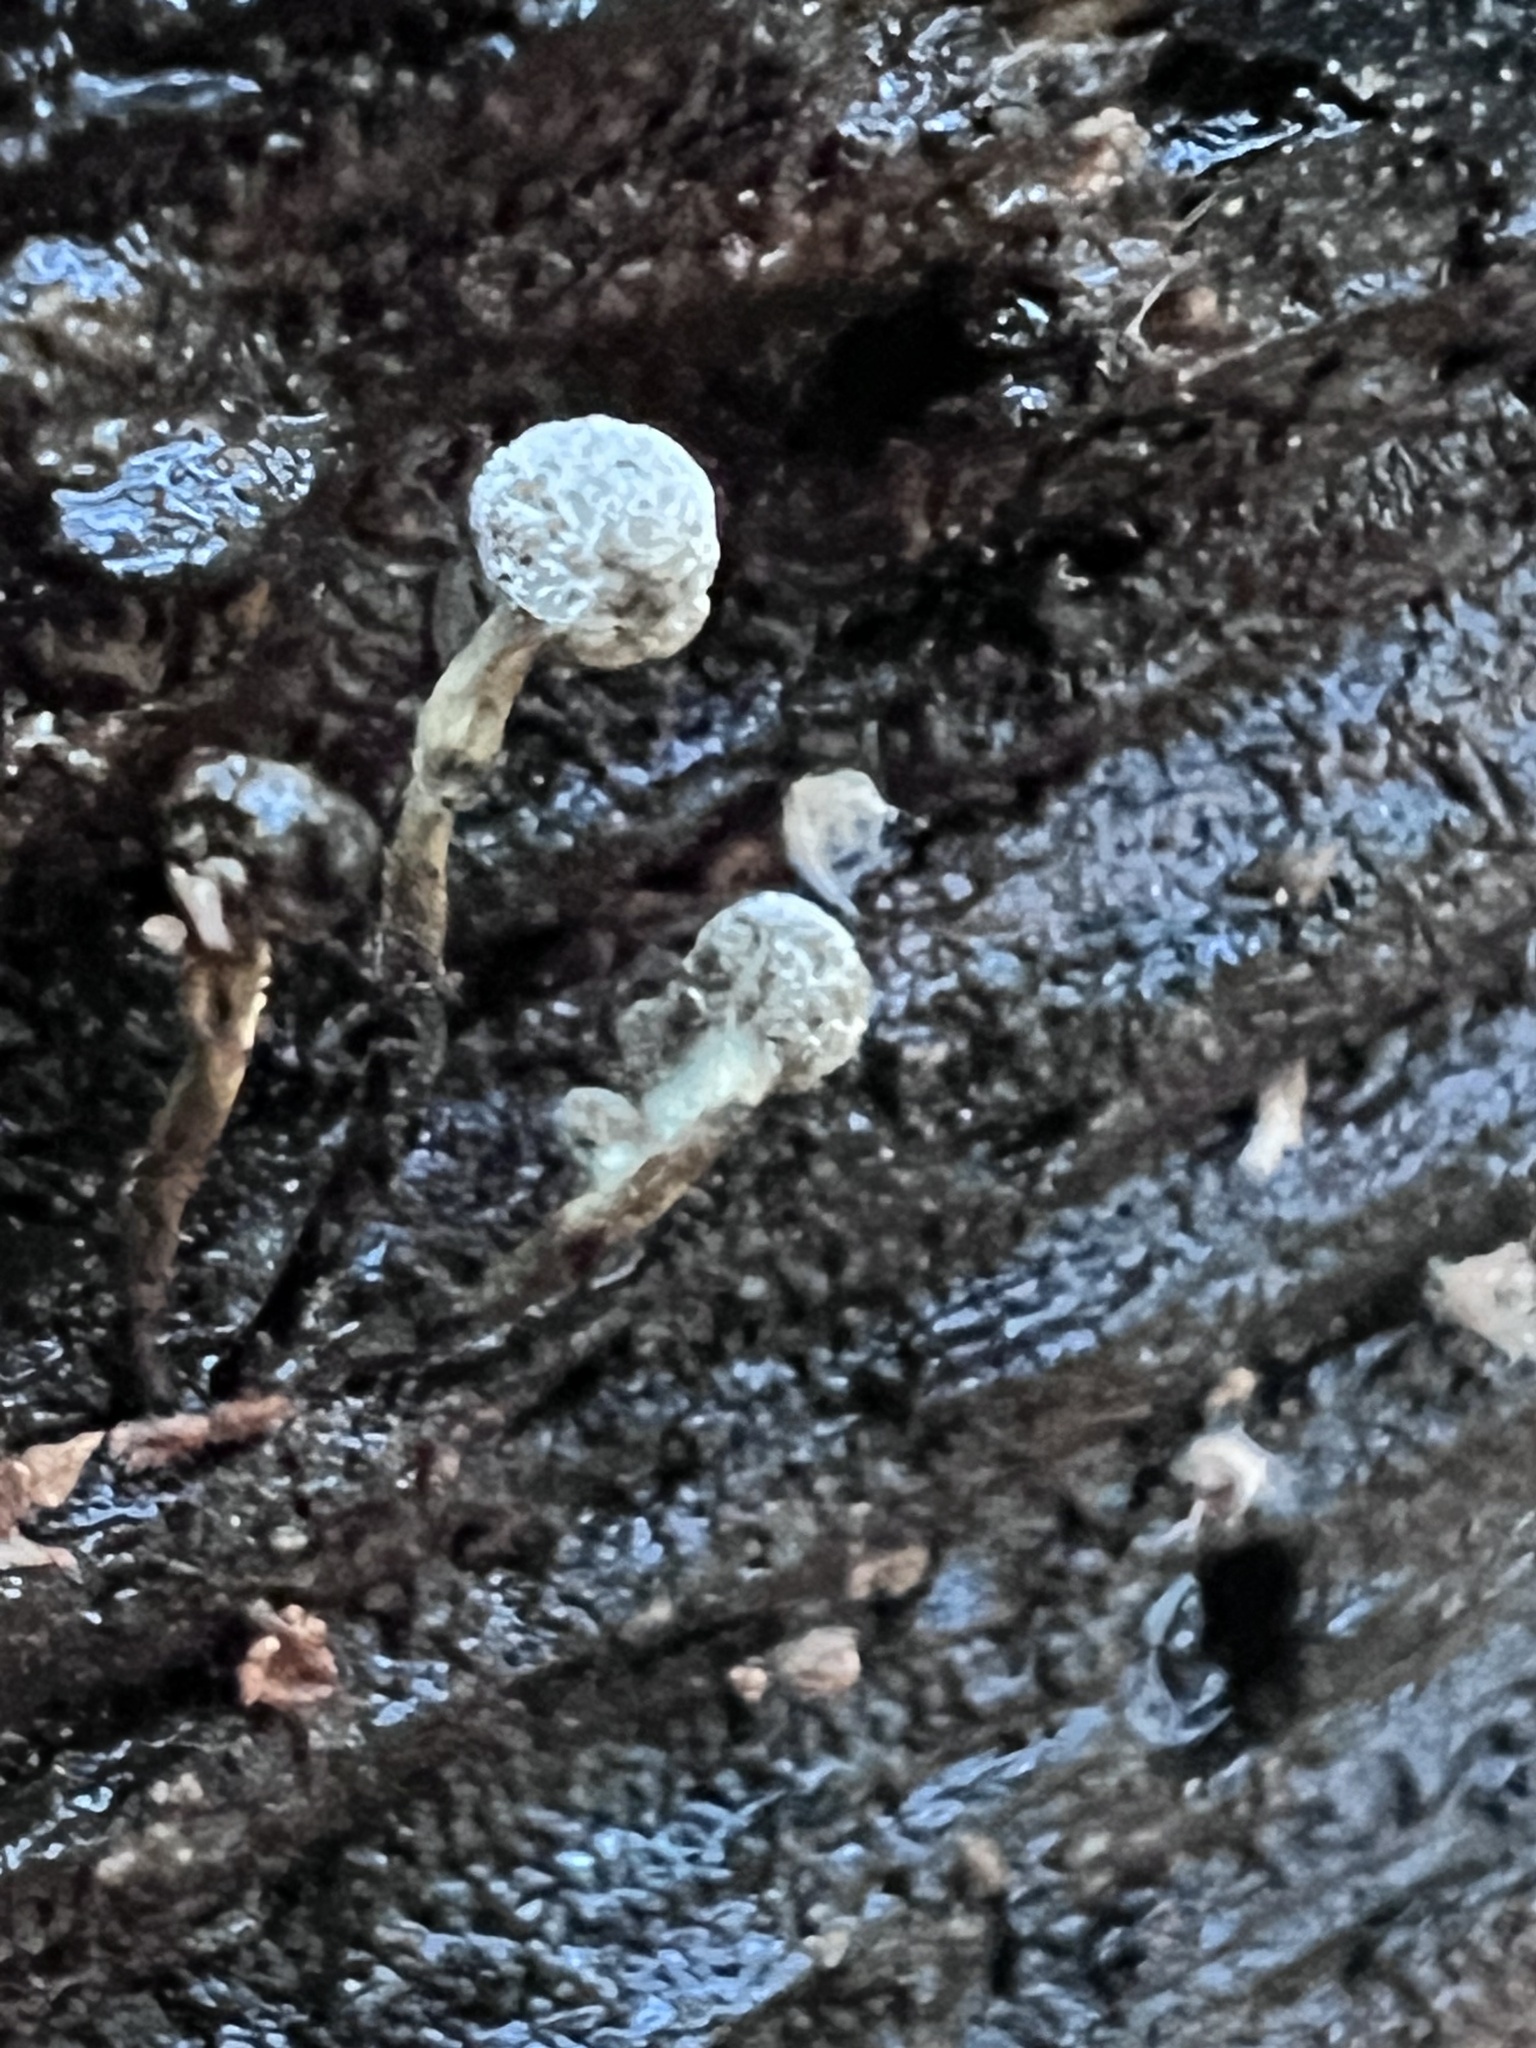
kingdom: Fungi
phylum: Basidiomycota
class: Atractiellomycetes
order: Atractiellales
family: Phleogenaceae
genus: Phleogena
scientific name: Phleogena faginea
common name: Fenugreek stalkball
